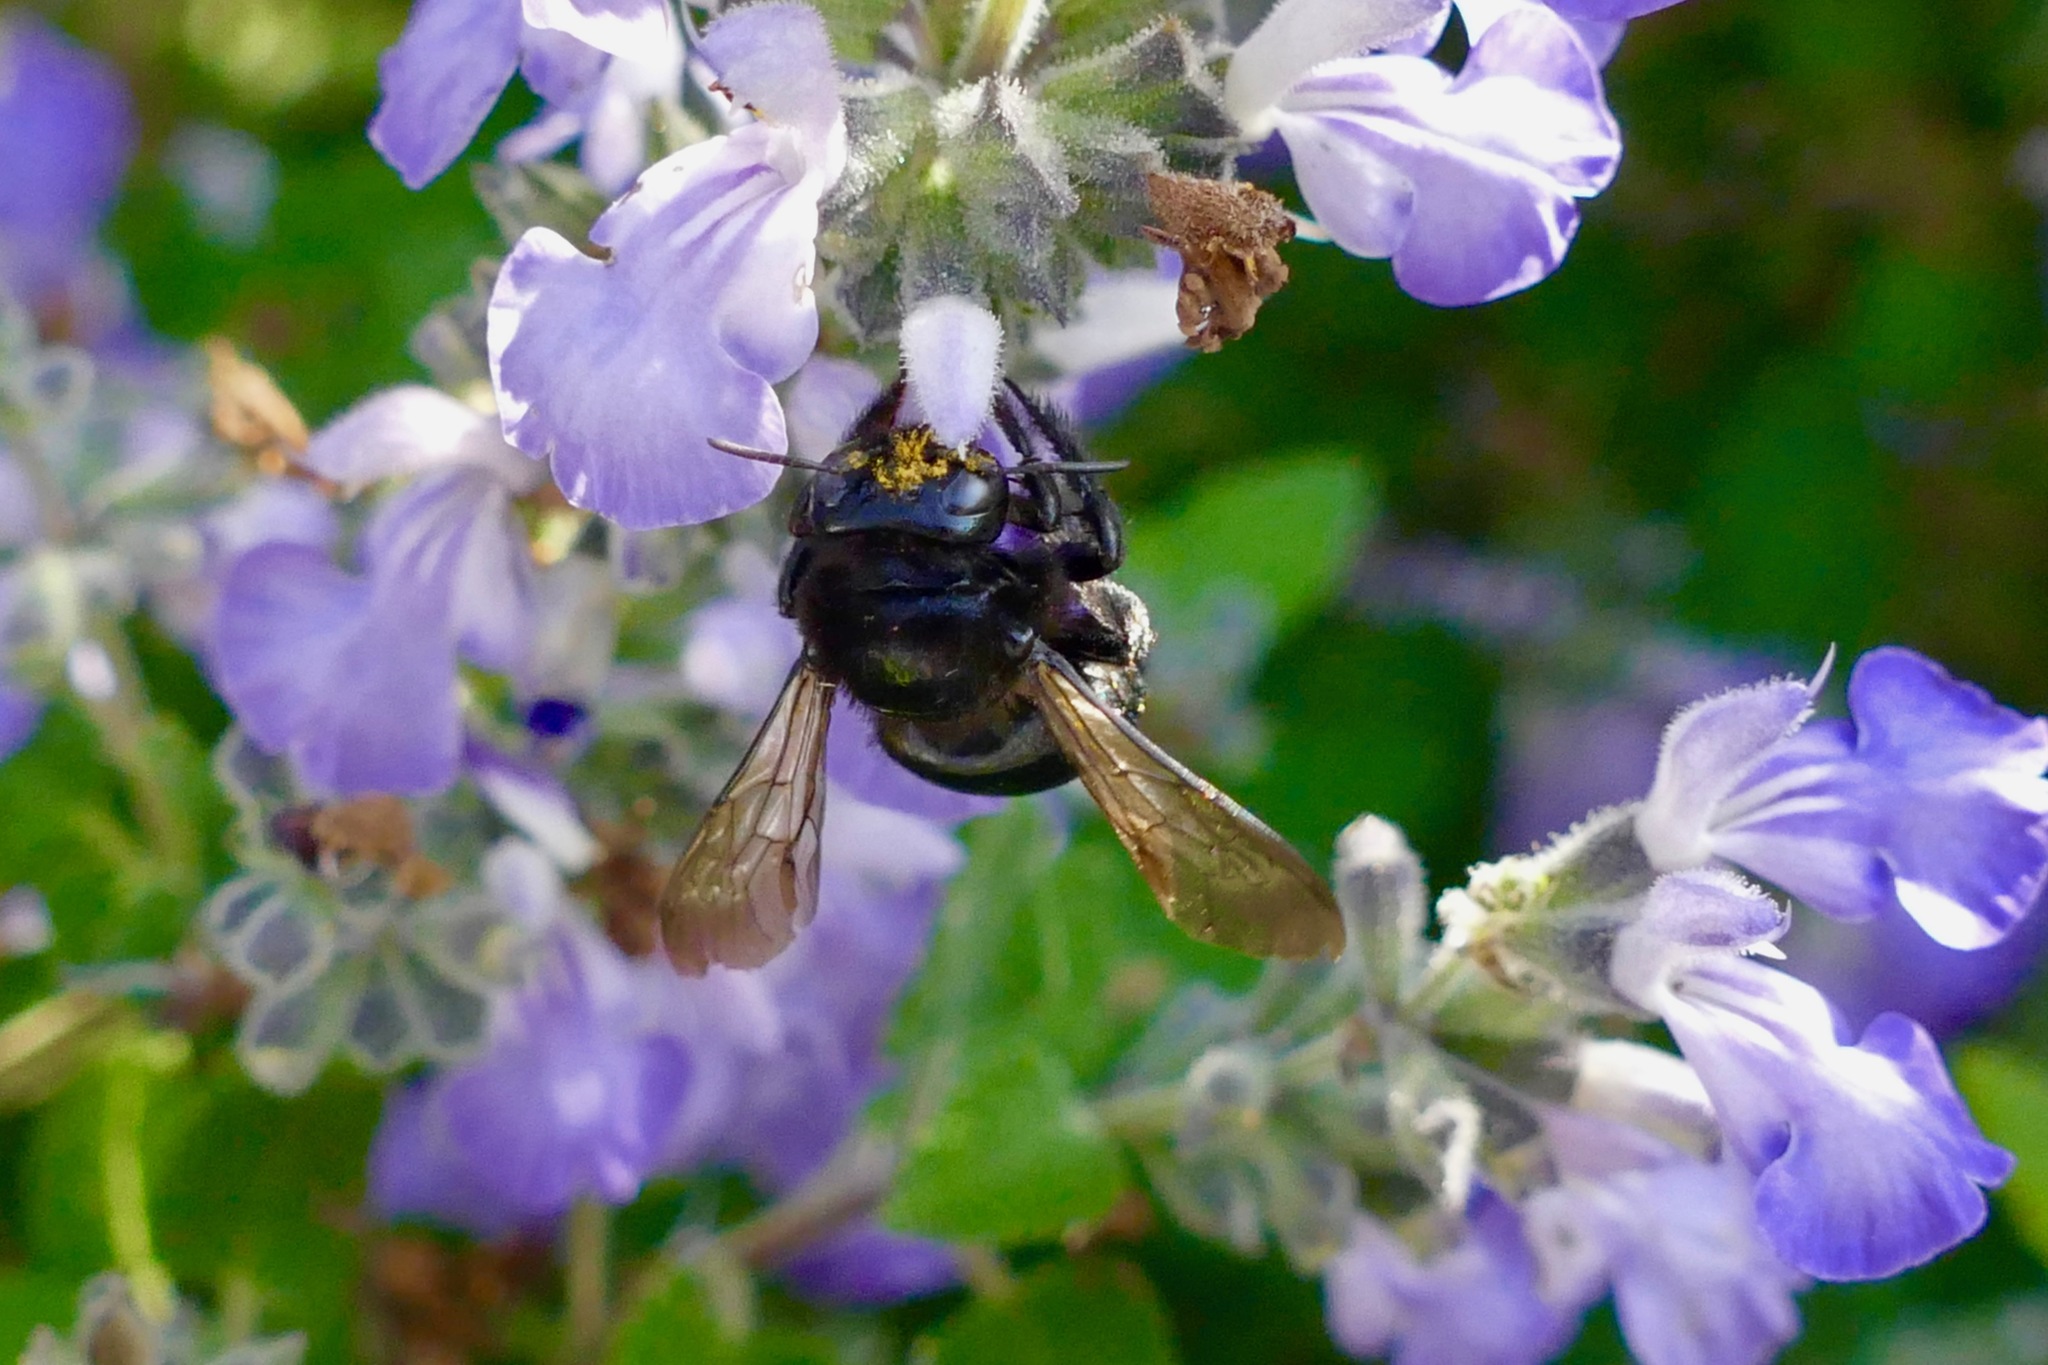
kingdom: Animalia
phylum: Arthropoda
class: Insecta
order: Hymenoptera
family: Apidae
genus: Xylocopa
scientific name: Xylocopa tabaniformis
